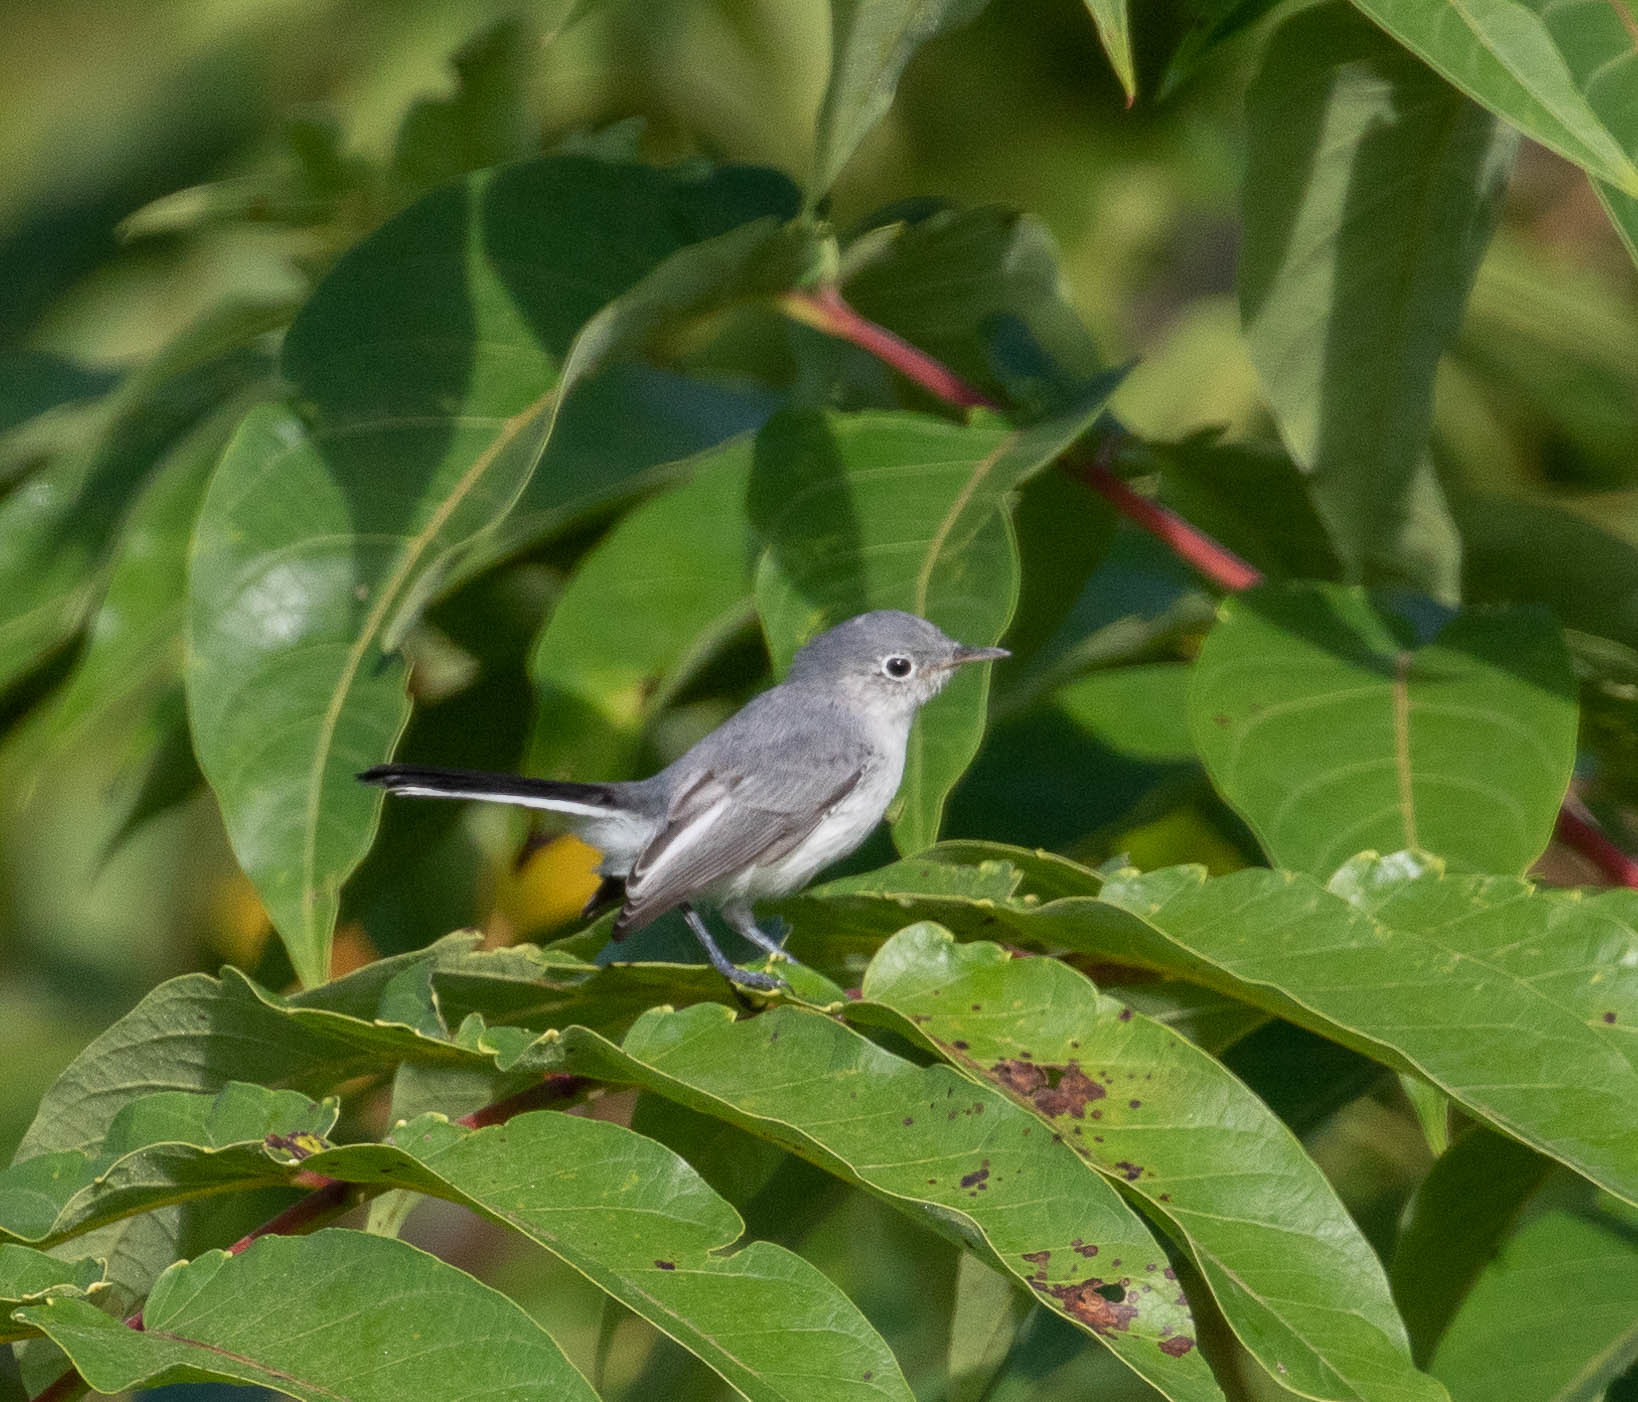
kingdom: Animalia
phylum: Chordata
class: Aves
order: Passeriformes
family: Polioptilidae
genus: Polioptila
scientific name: Polioptila caerulea
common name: Blue-gray gnatcatcher
